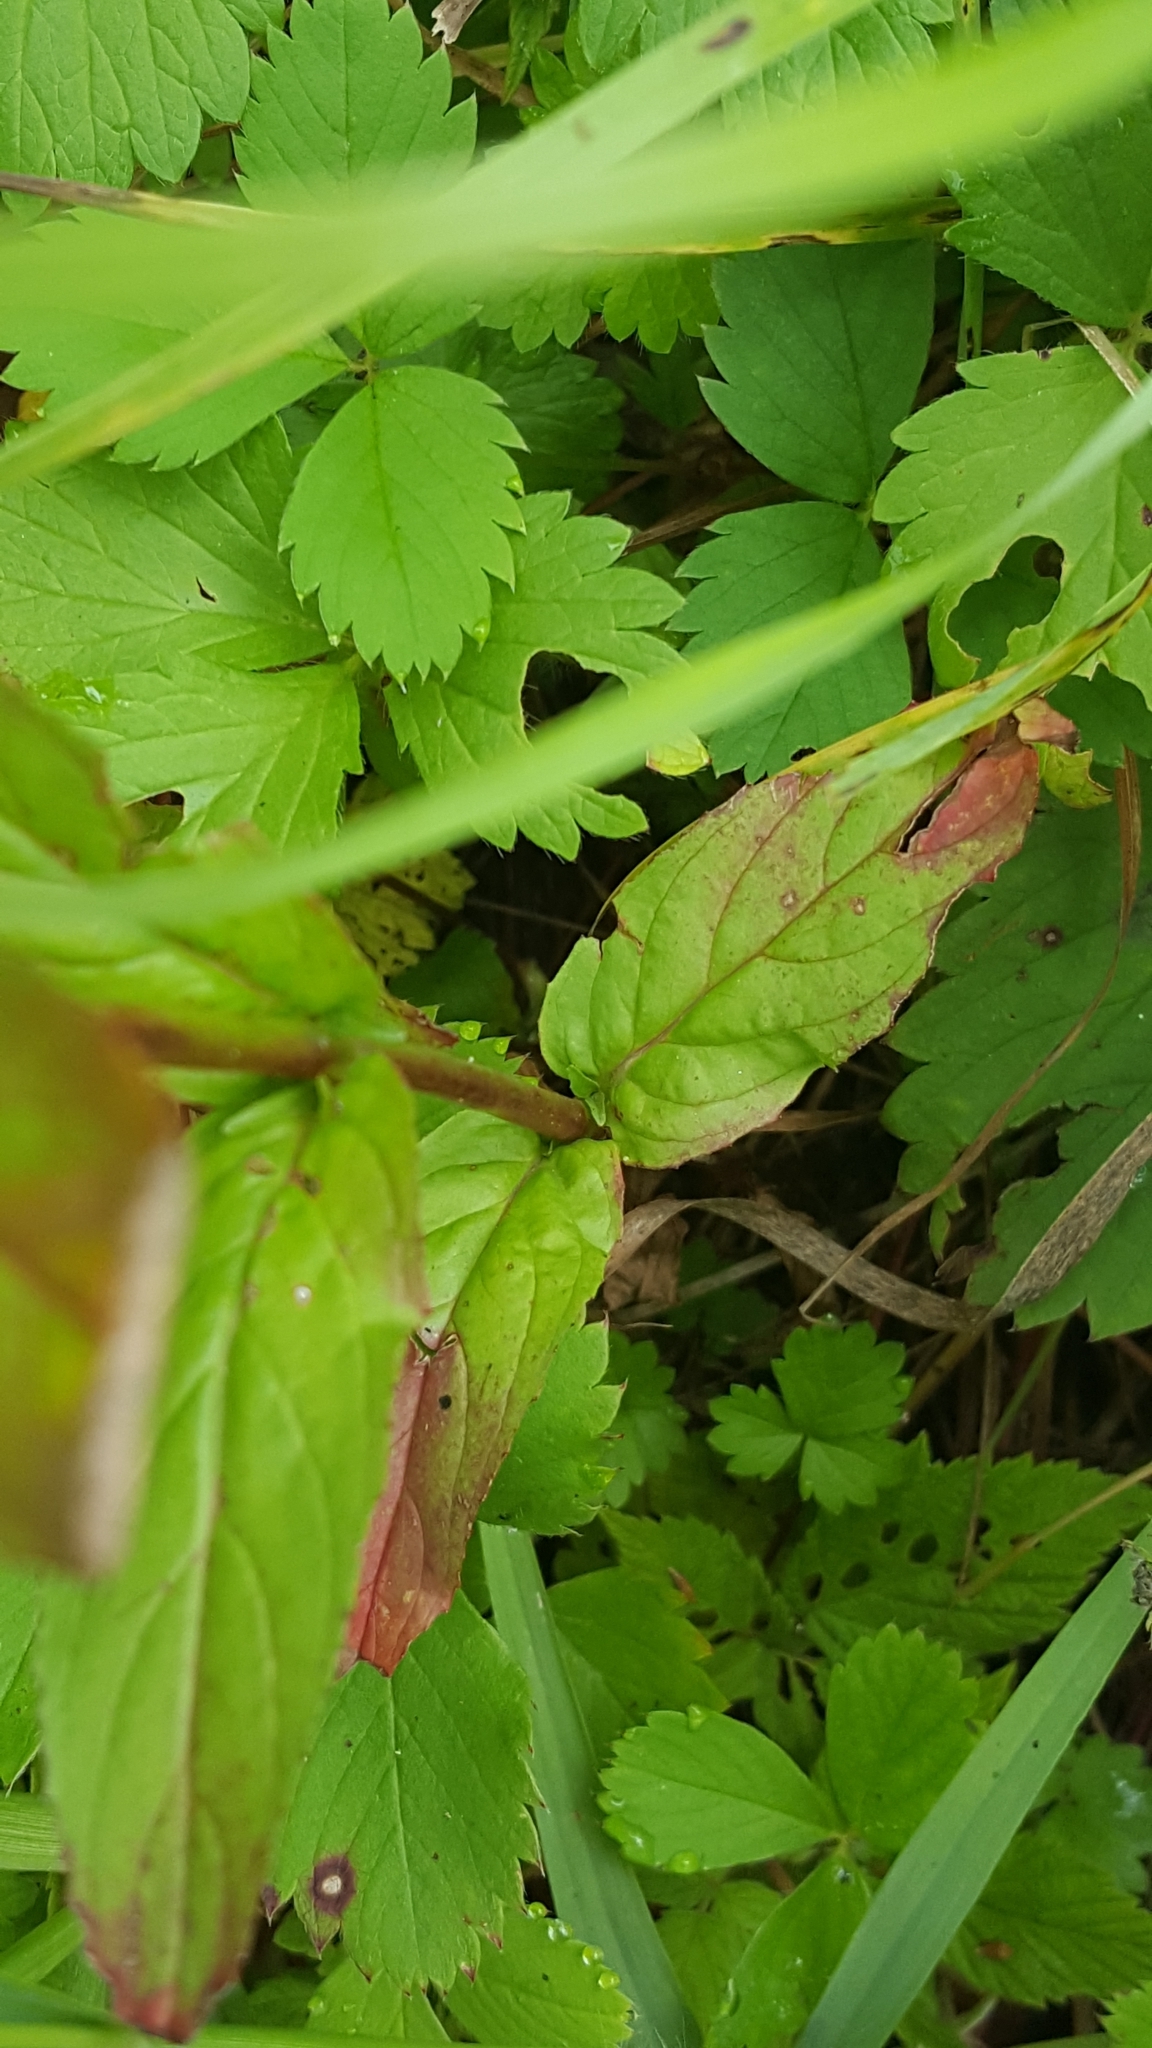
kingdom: Plantae
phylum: Tracheophyta
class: Magnoliopsida
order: Myrtales
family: Onagraceae
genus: Epilobium
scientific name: Epilobium ciliatum
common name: American willowherb
